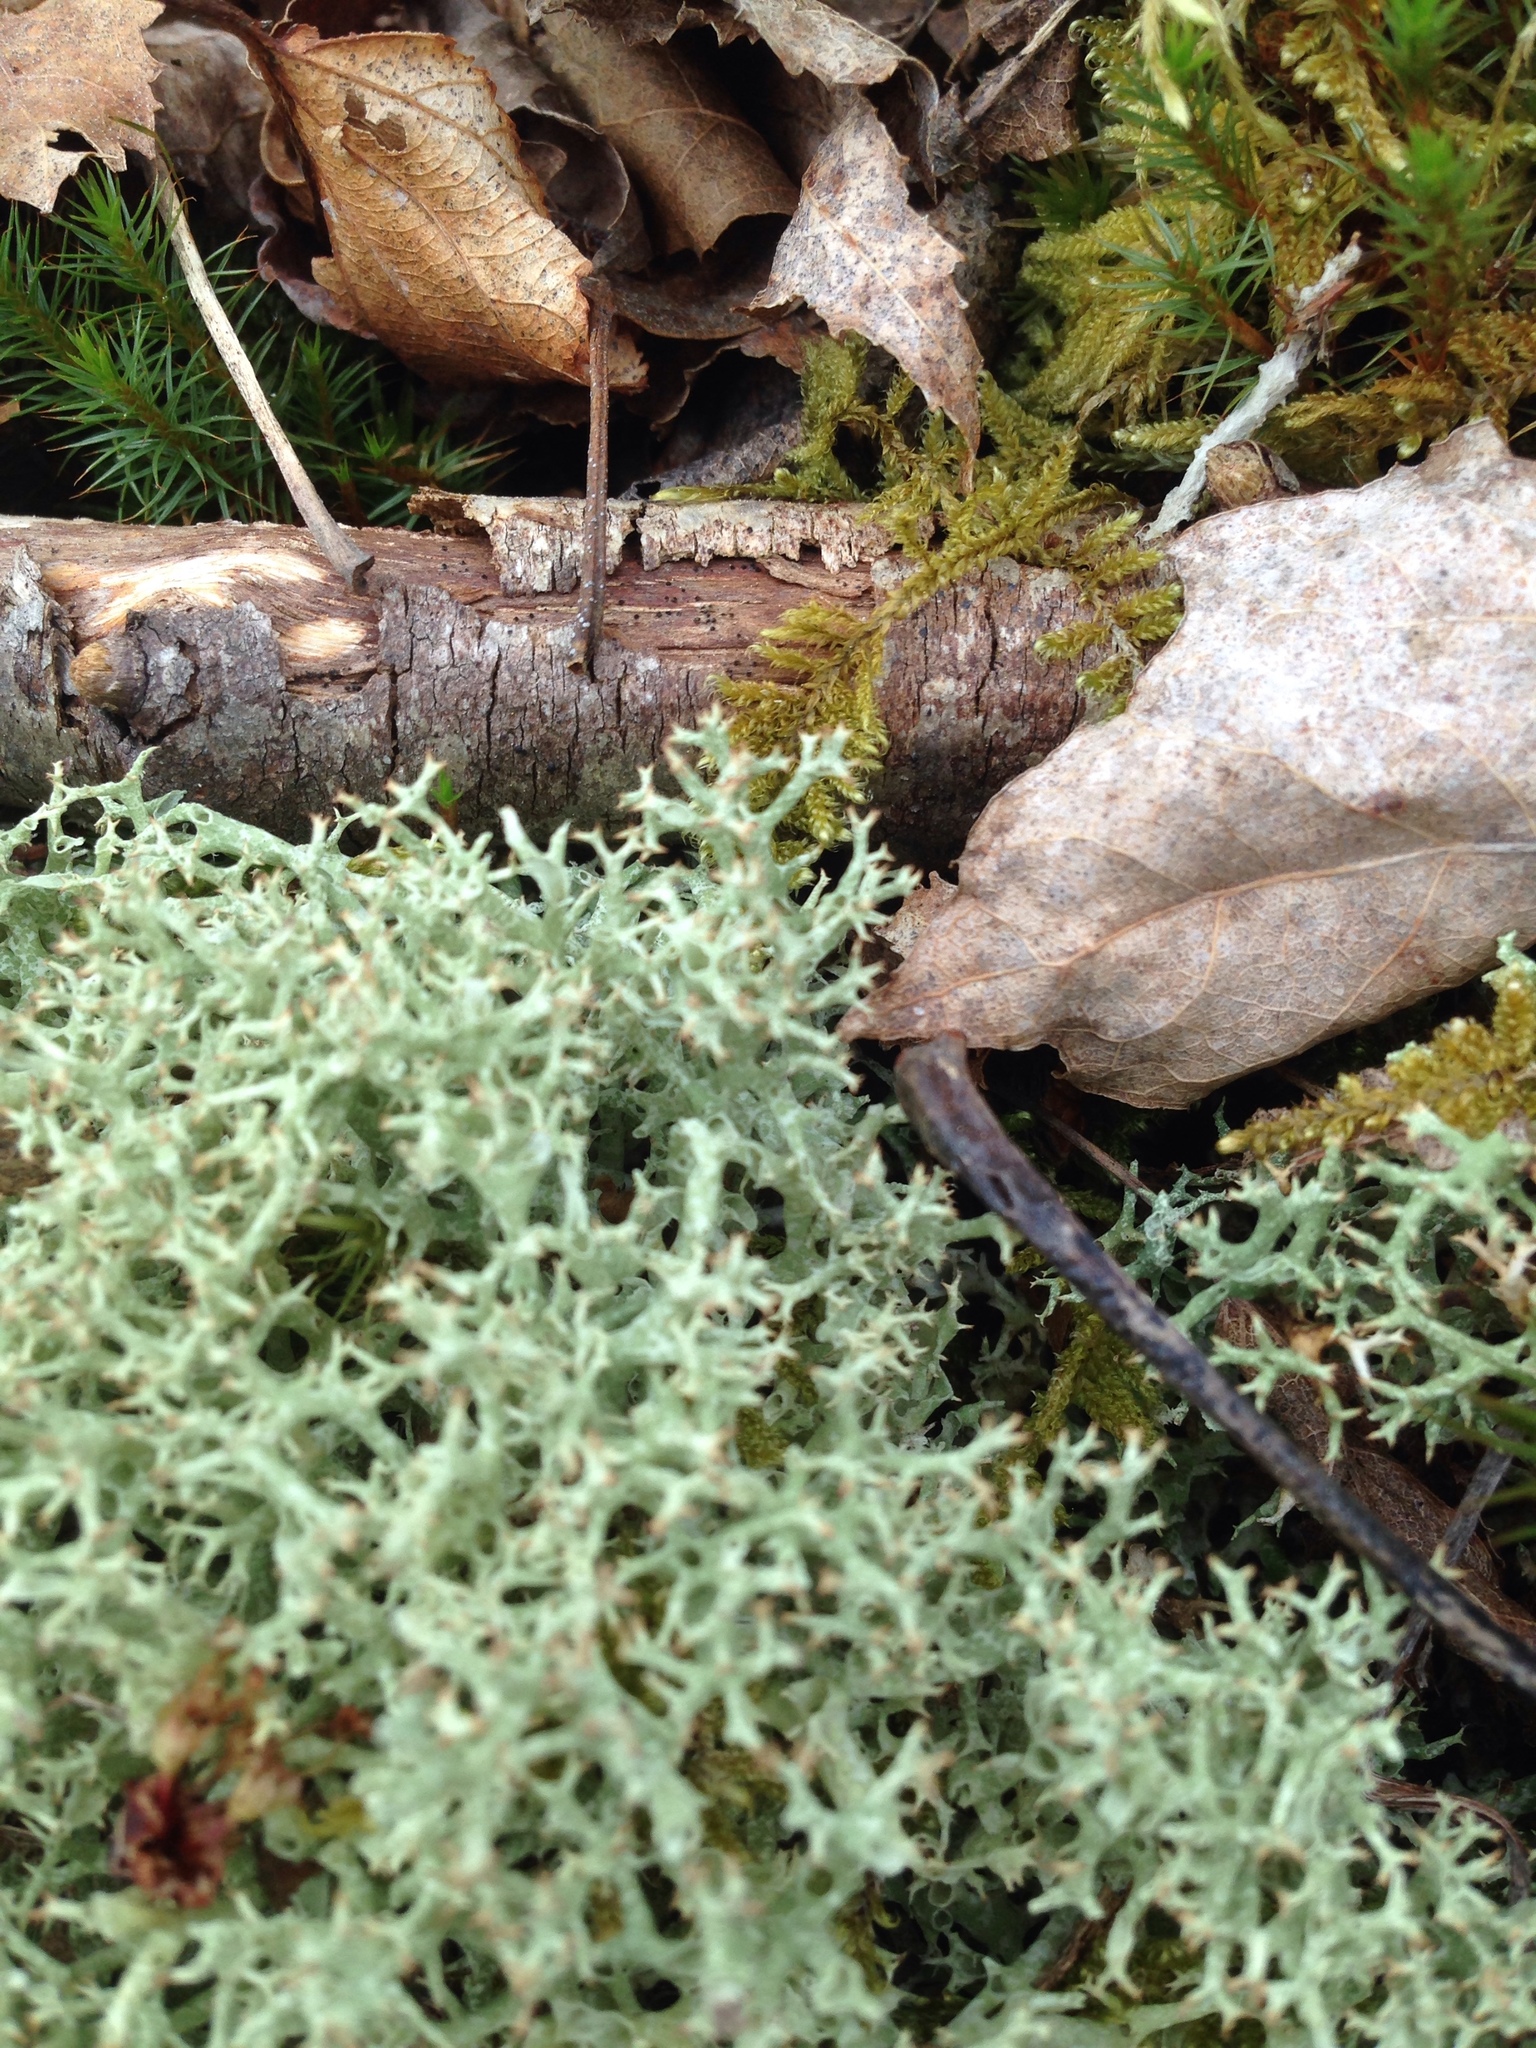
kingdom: Fungi
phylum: Ascomycota
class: Lecanoromycetes
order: Lecanorales
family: Cladoniaceae
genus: Cladonia
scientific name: Cladonia uncialis
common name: Thorn lichen
